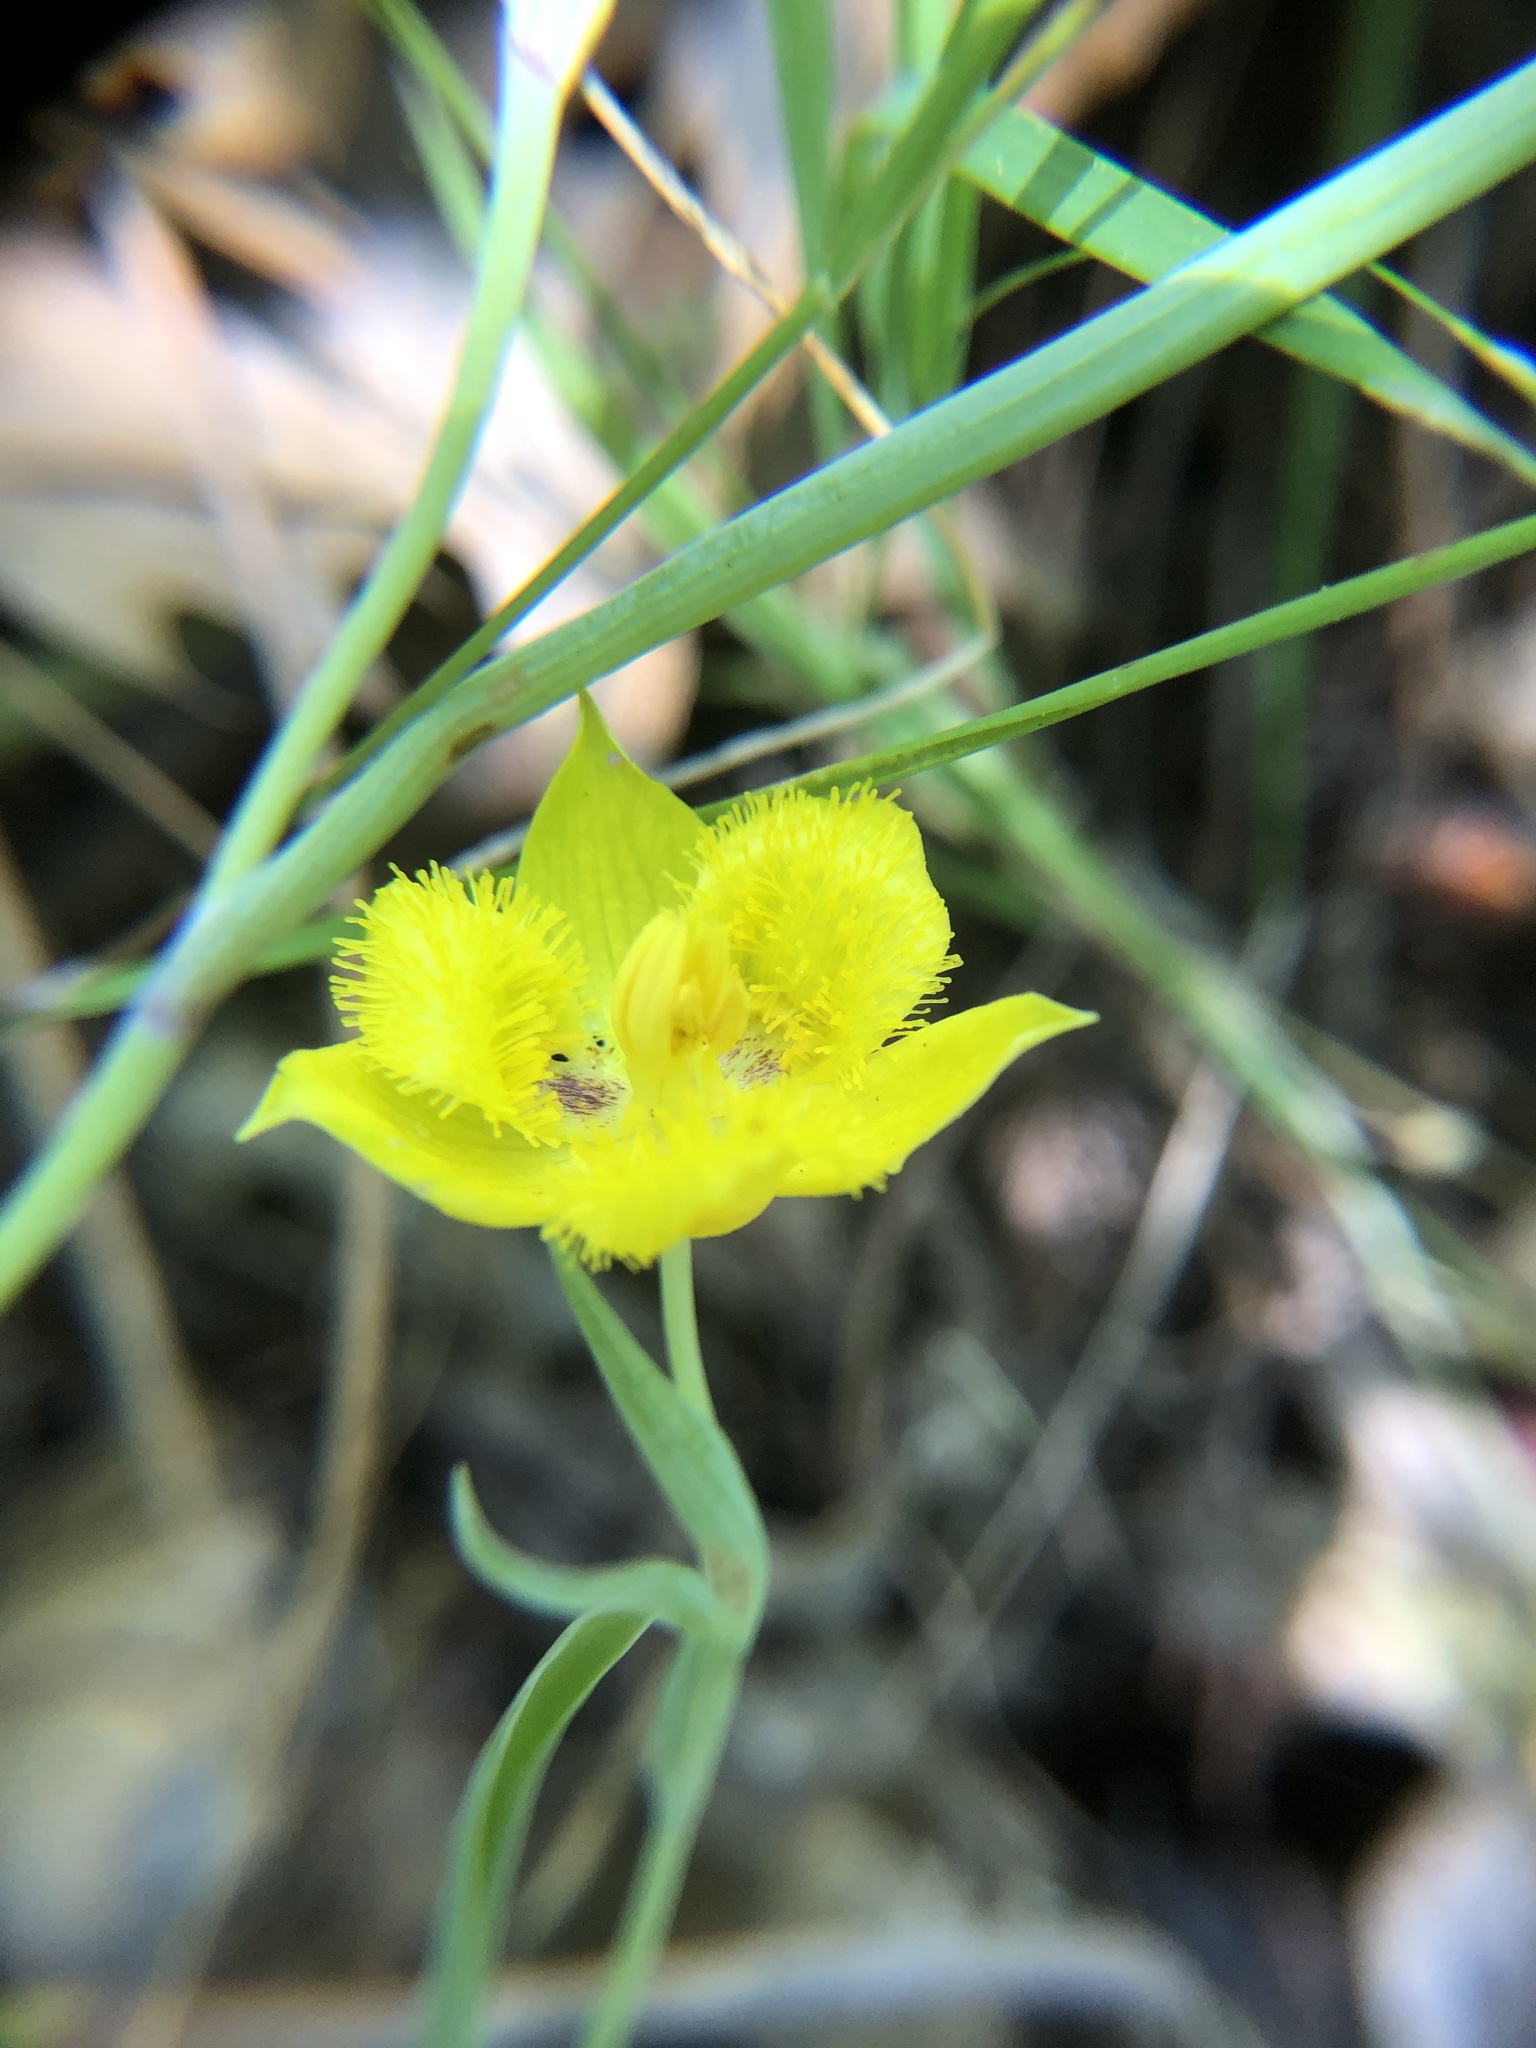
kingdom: Plantae
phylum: Tracheophyta
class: Liliopsida
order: Liliales
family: Liliaceae
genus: Calochortus
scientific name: Calochortus monophyllus
